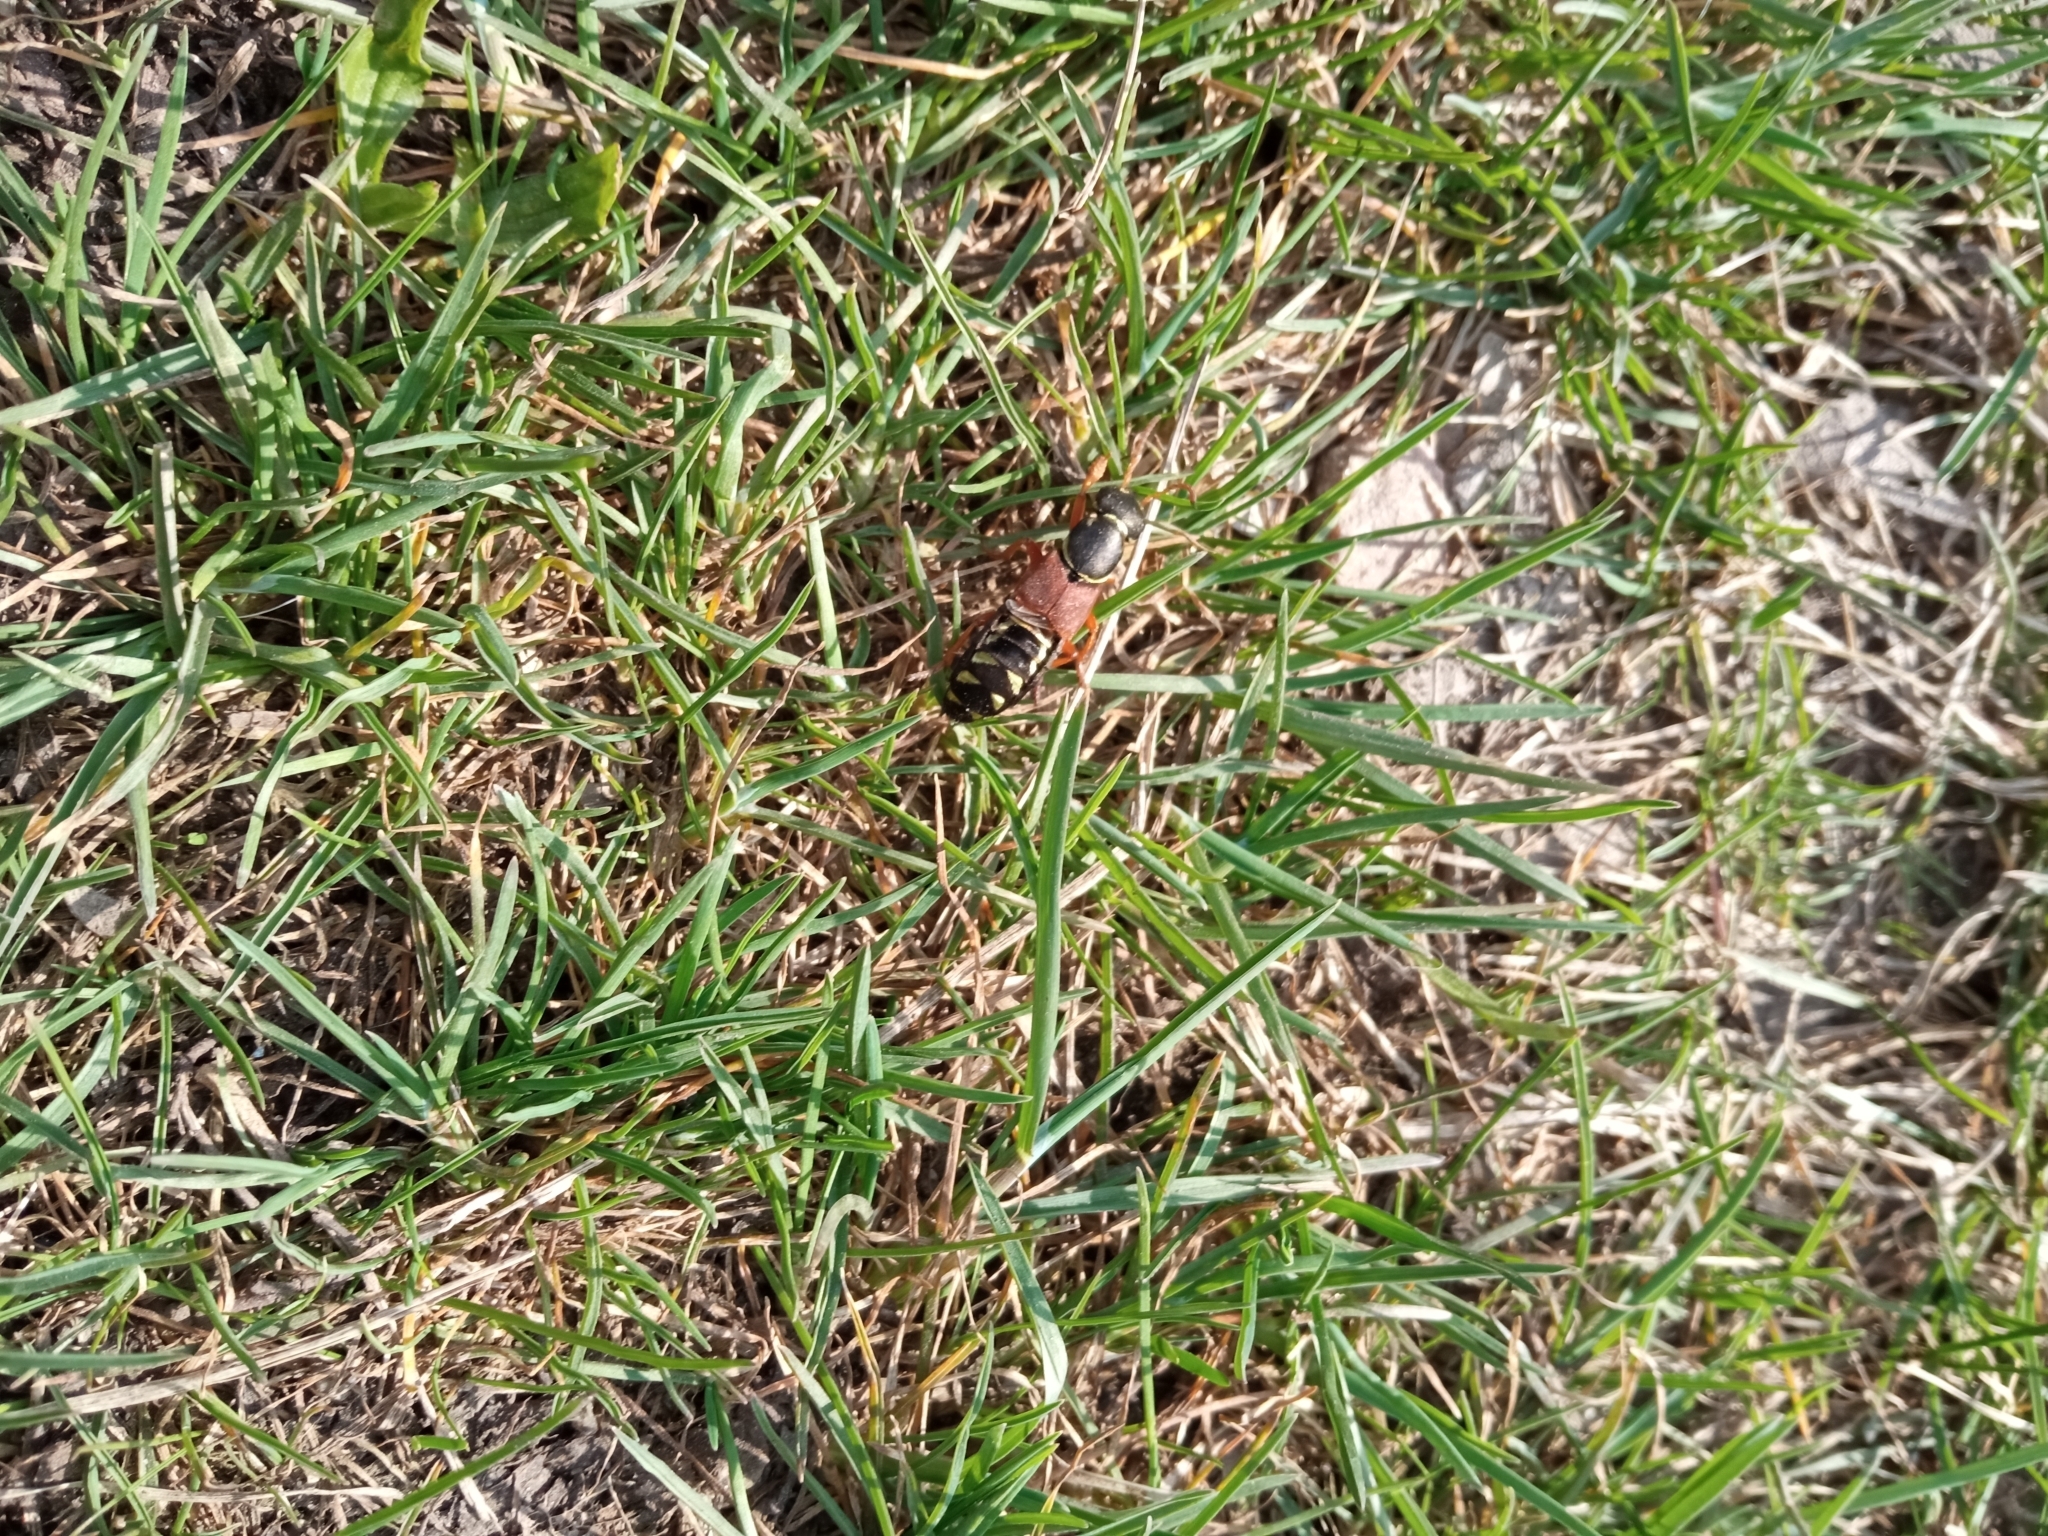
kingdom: Animalia
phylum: Arthropoda
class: Insecta
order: Coleoptera
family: Staphylinidae
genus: Staphylinus
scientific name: Staphylinus caesareus
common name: Staph beetle
